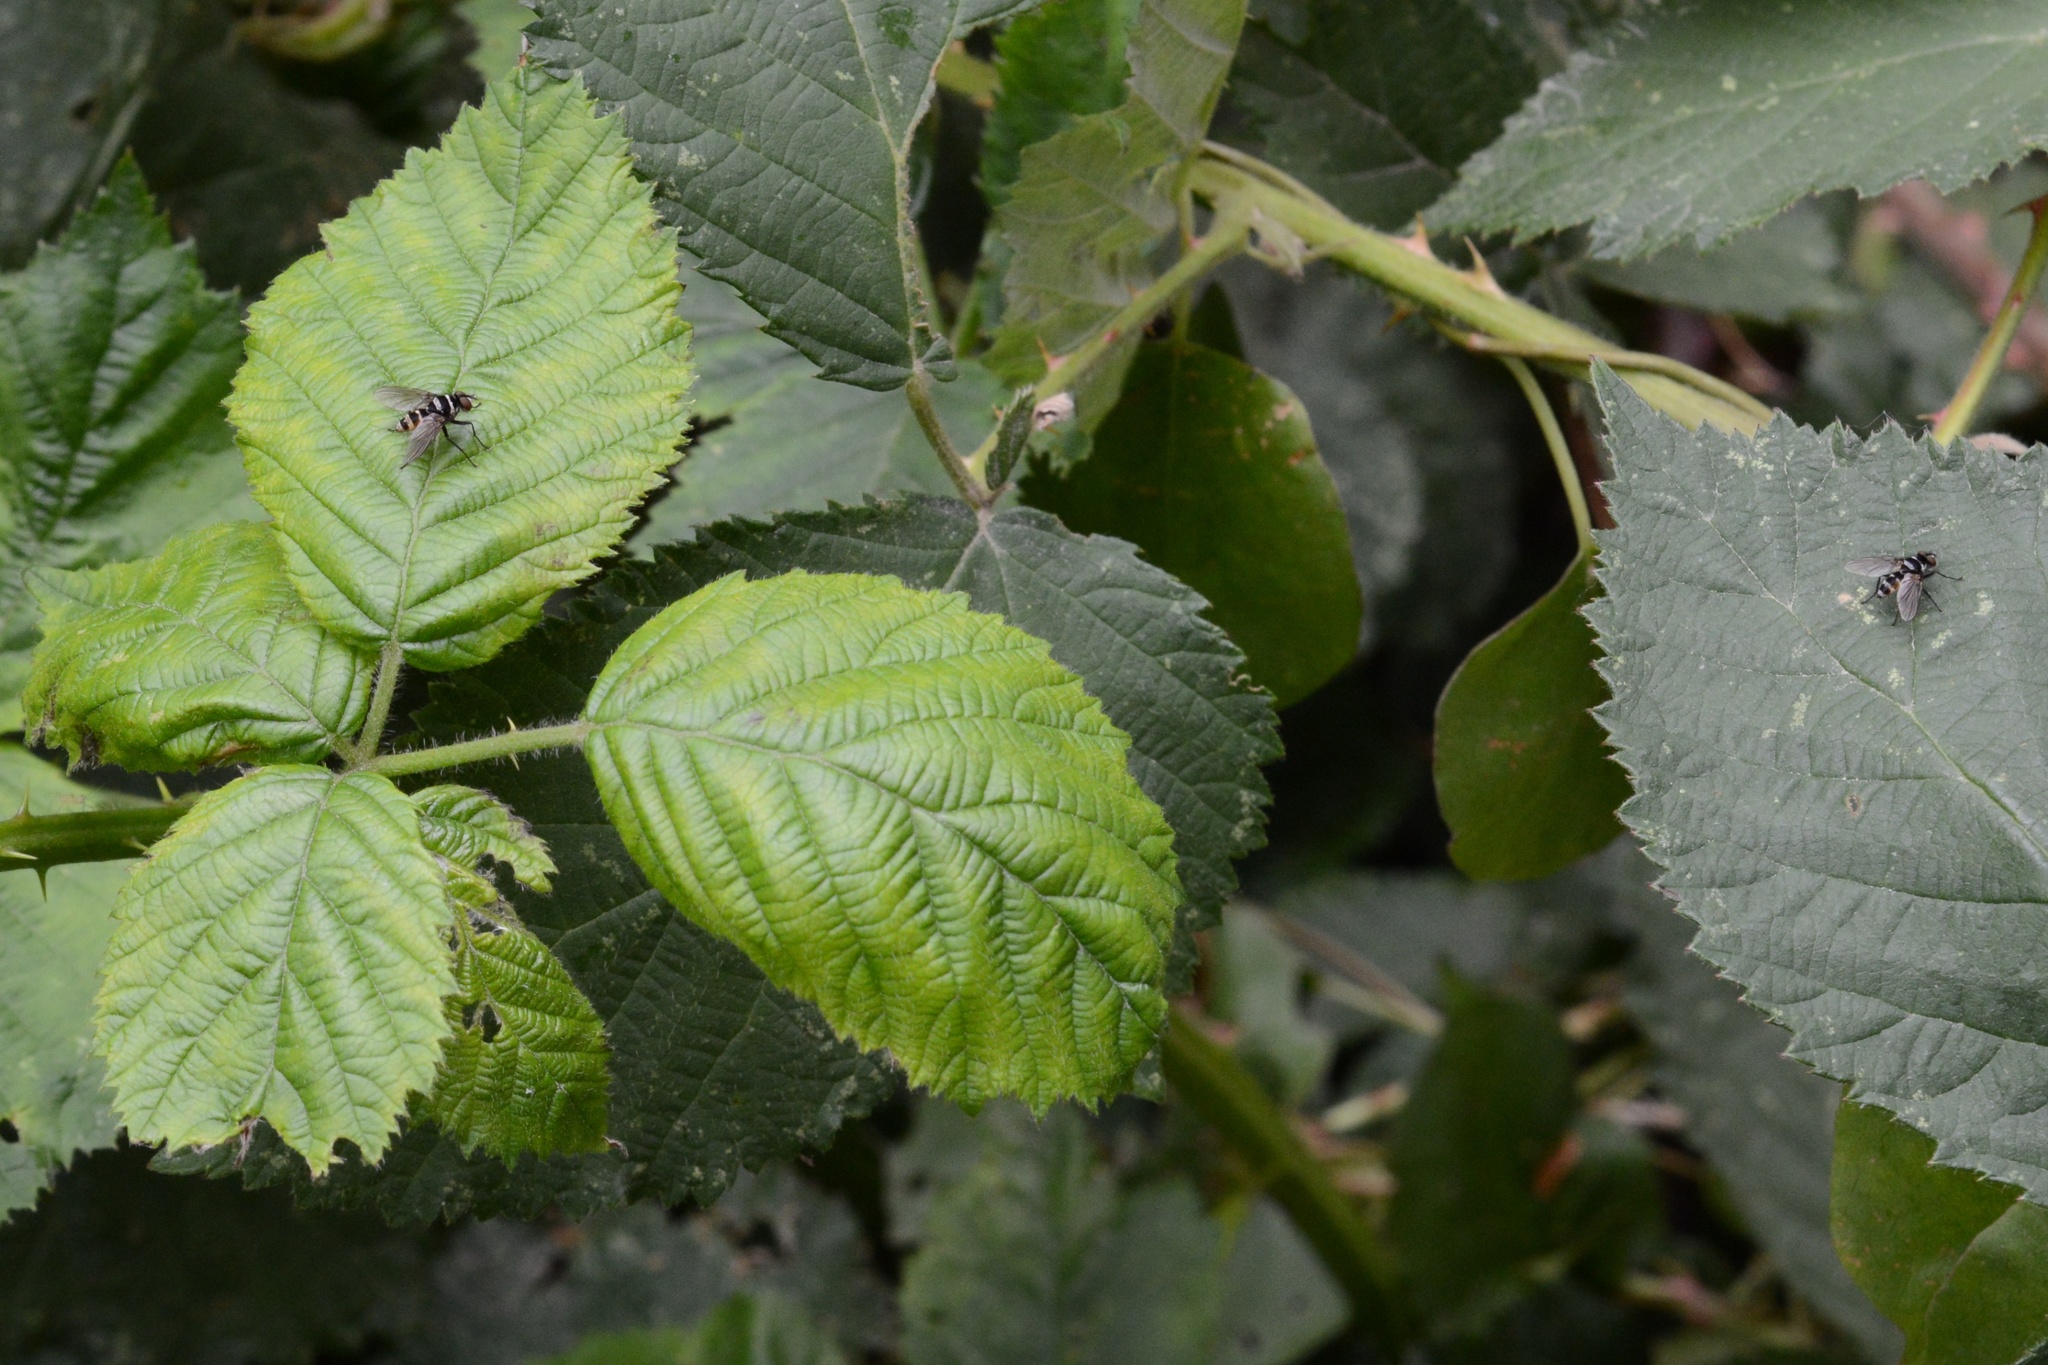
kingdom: Animalia
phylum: Arthropoda
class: Insecta
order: Diptera
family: Tachinidae
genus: Trigonospila
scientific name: Trigonospila brevifacies
